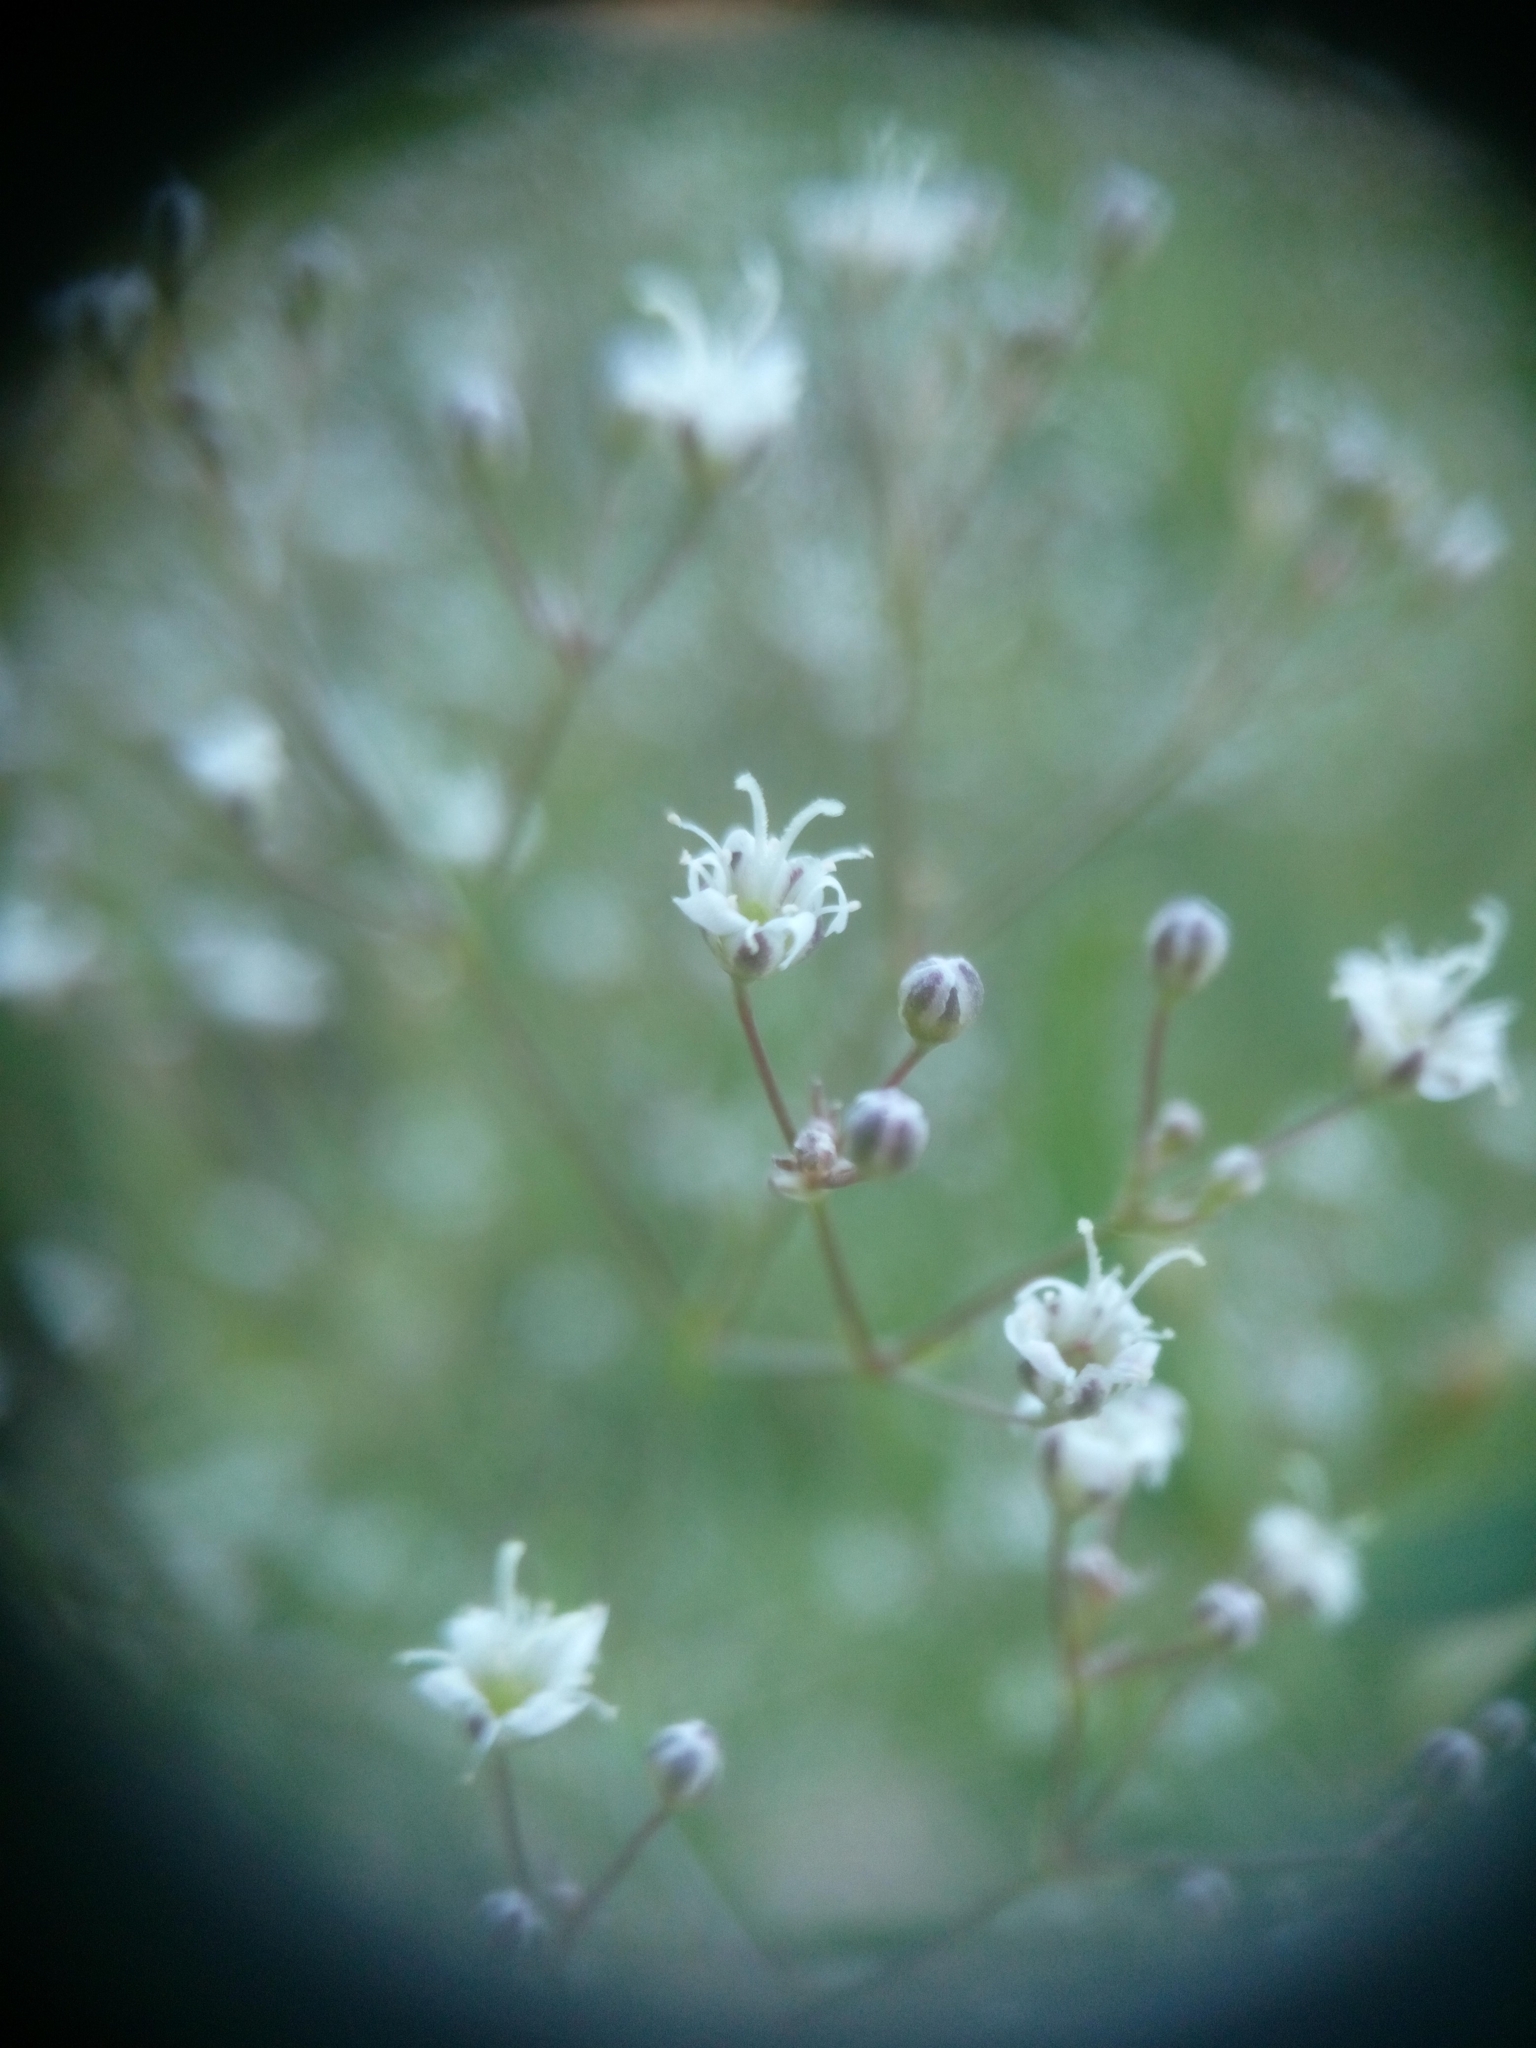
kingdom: Plantae
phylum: Tracheophyta
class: Magnoliopsida
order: Caryophyllales
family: Caryophyllaceae
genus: Gypsophila
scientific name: Gypsophila paniculata
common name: Baby's-breath
